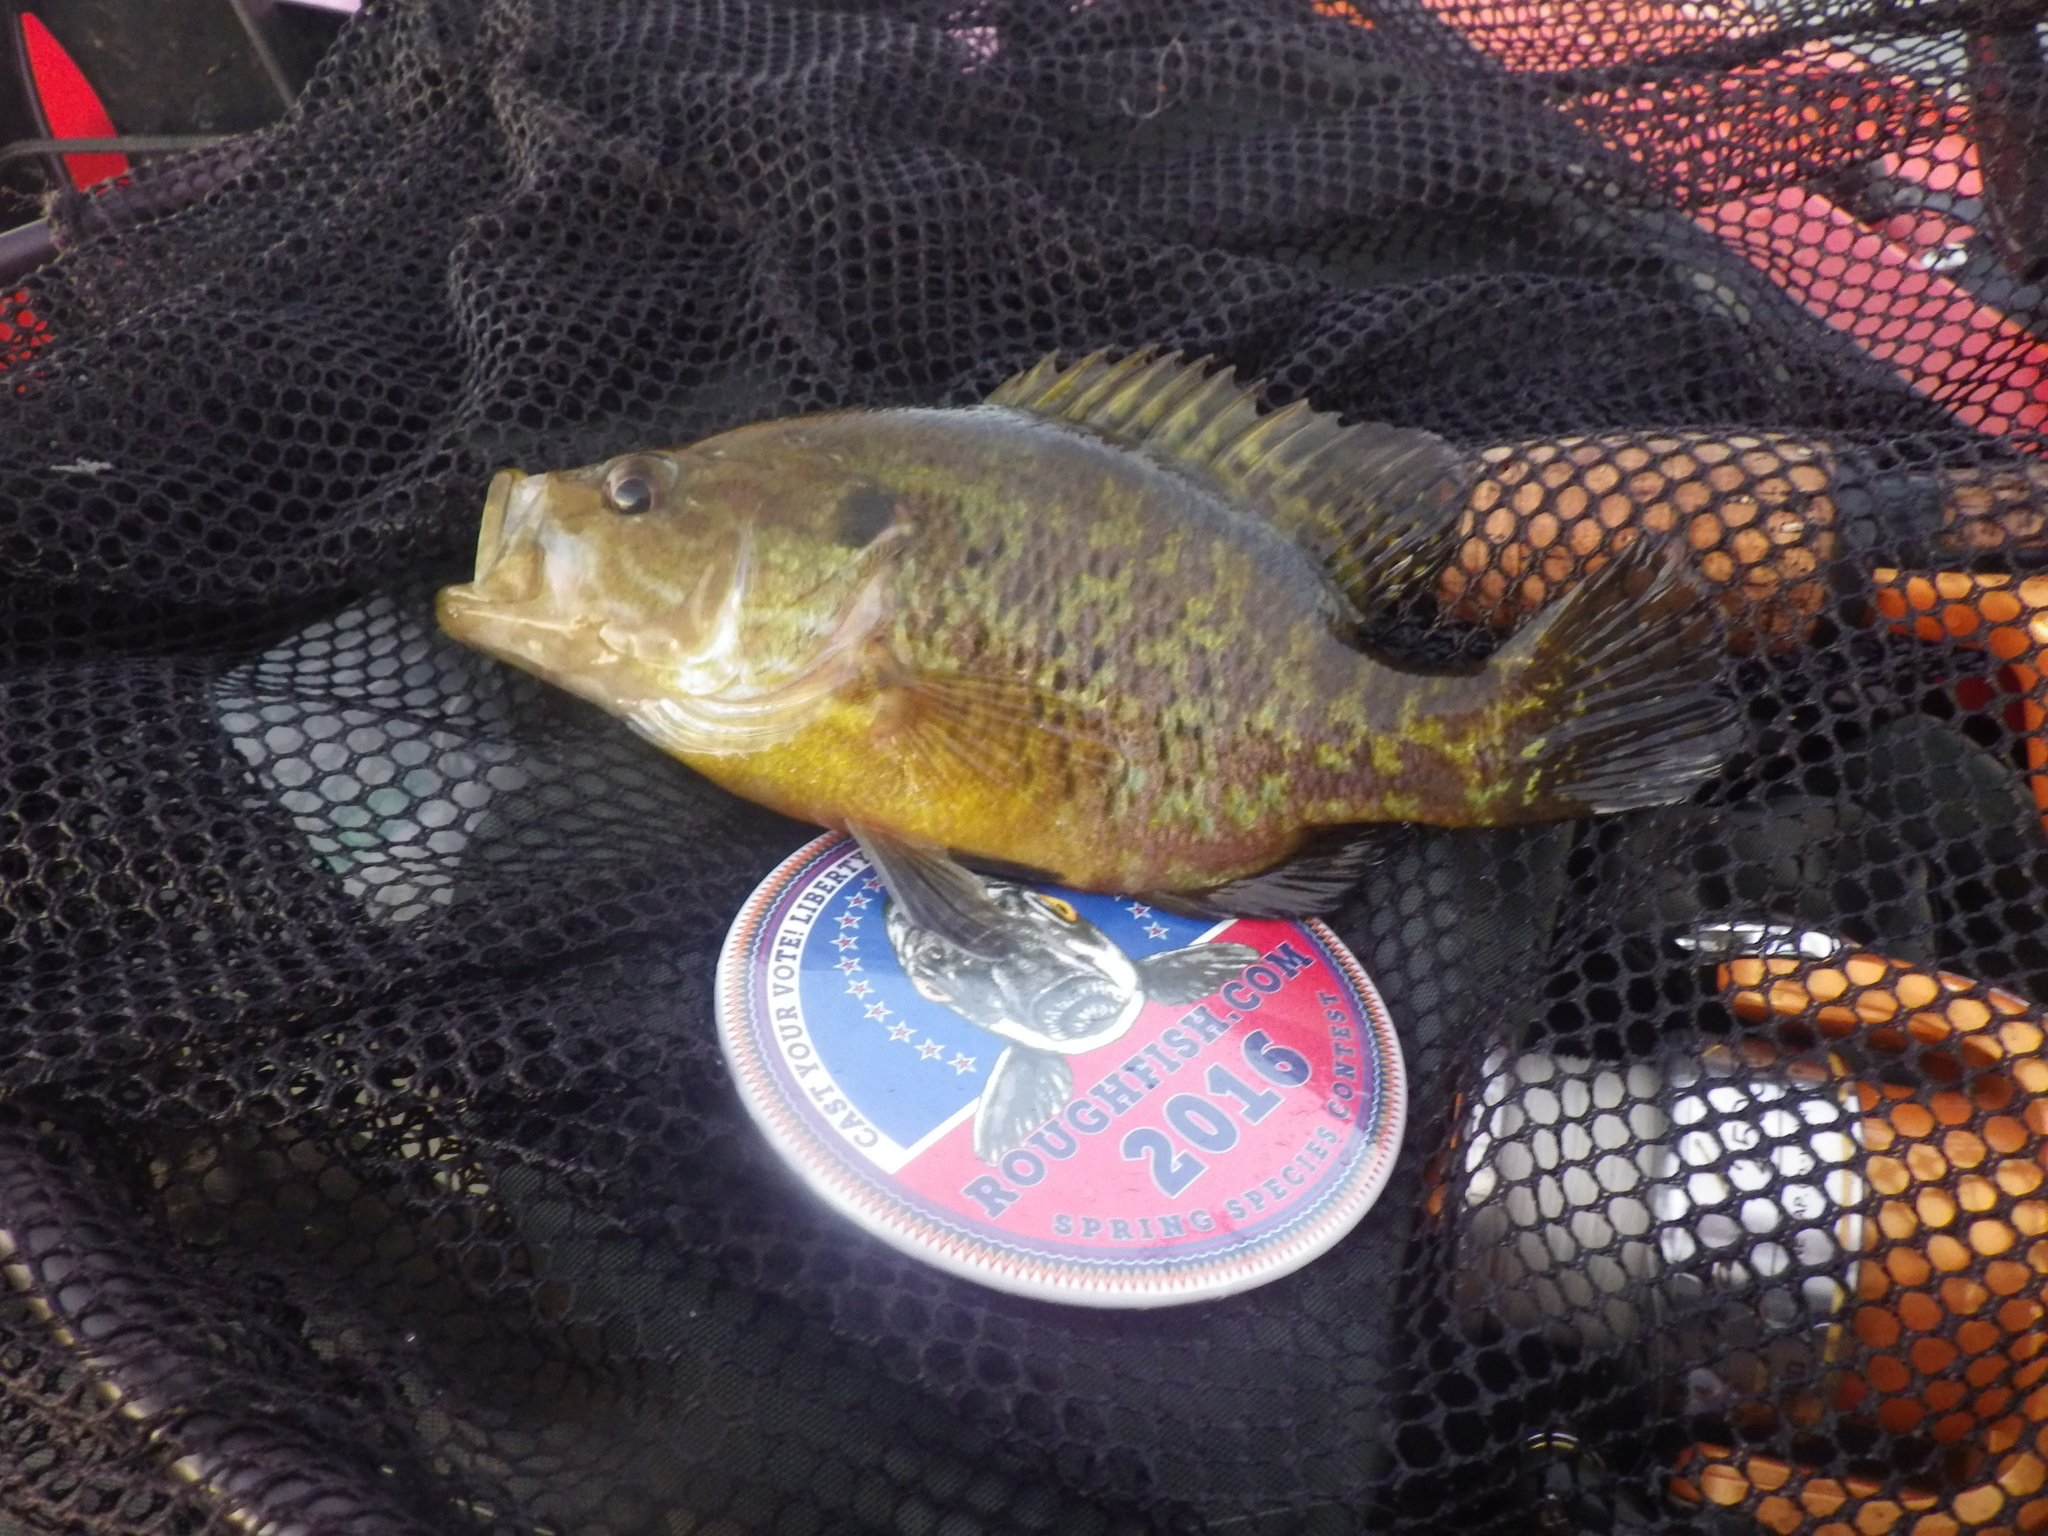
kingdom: Animalia
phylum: Chordata
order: Perciformes
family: Centrarchidae
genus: Lepomis
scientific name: Lepomis gulosus
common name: Warmouth
